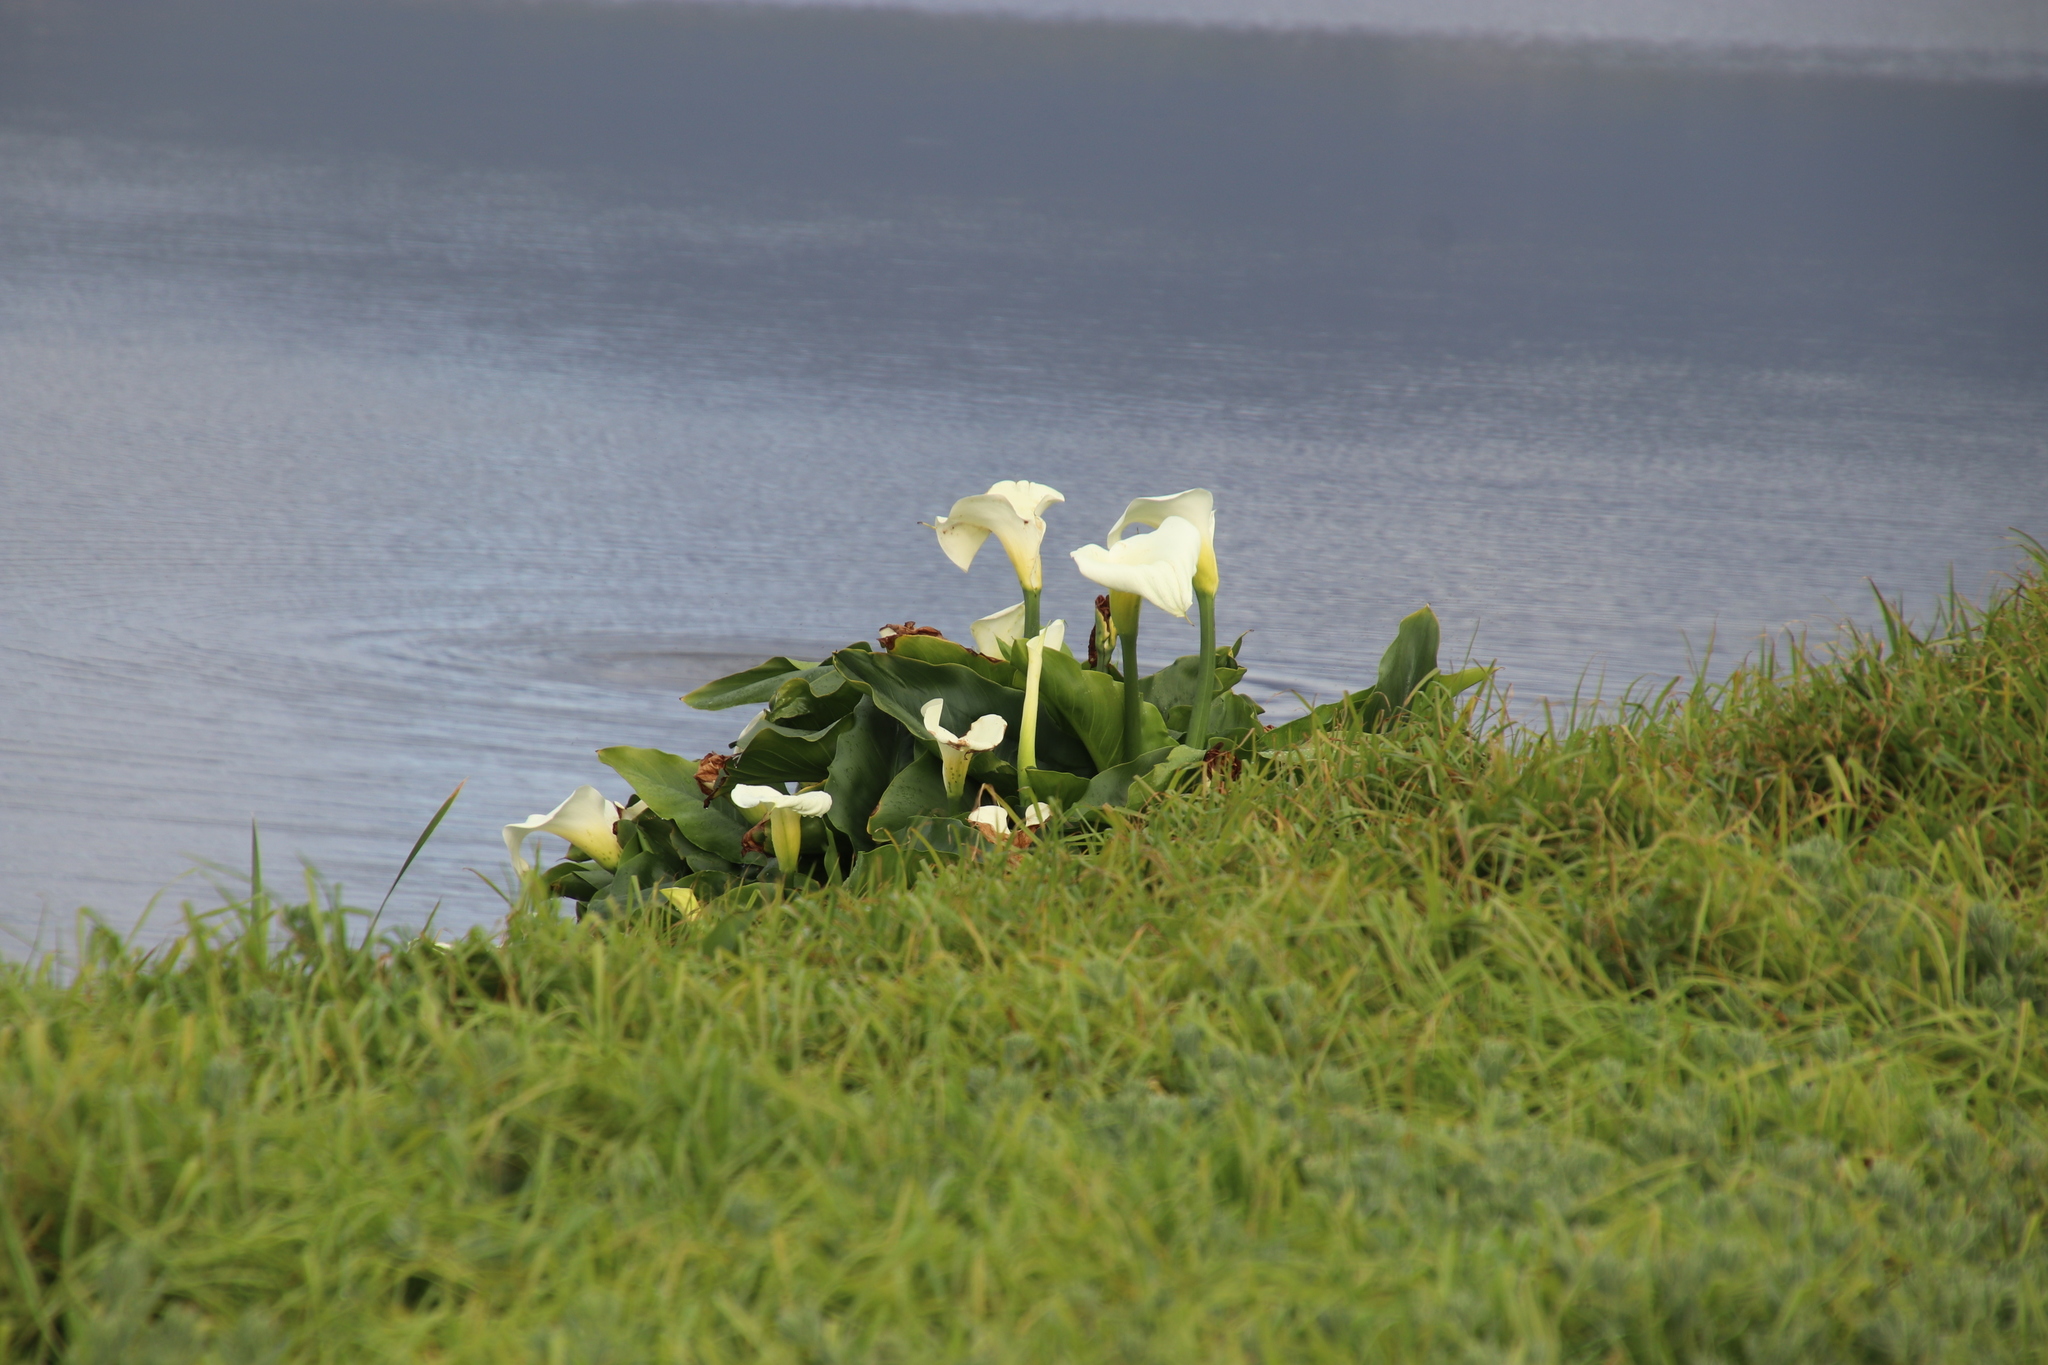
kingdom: Plantae
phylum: Tracheophyta
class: Liliopsida
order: Alismatales
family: Araceae
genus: Zantedeschia
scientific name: Zantedeschia aethiopica
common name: Altar-lily
